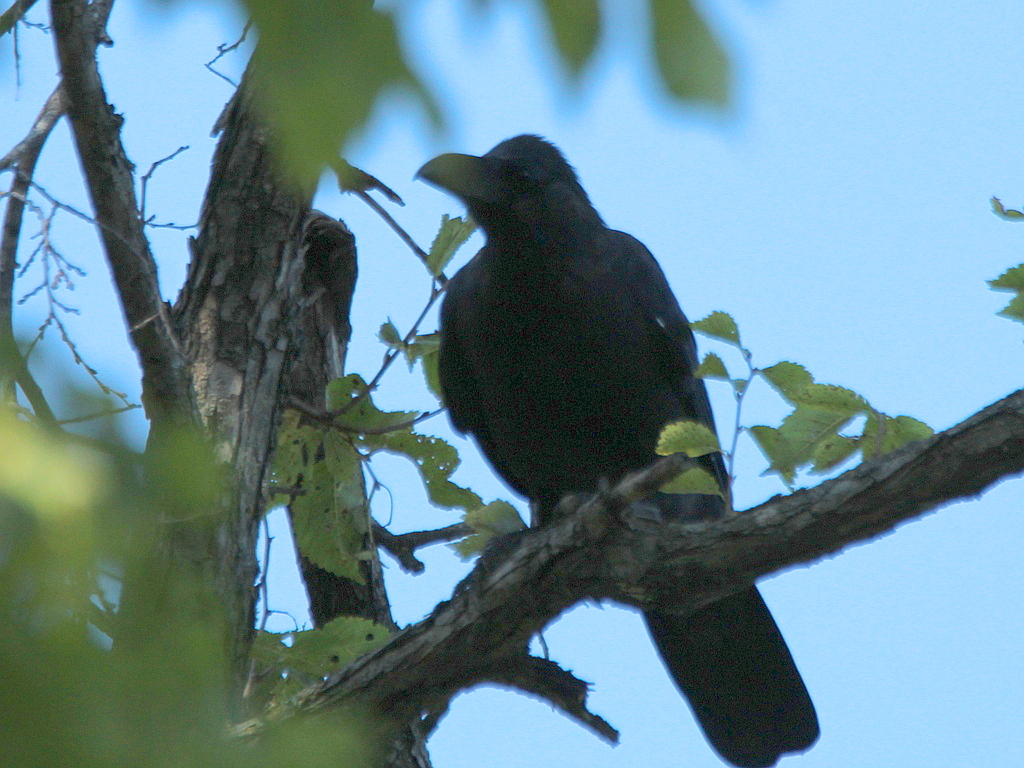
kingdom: Animalia
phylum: Chordata
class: Aves
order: Passeriformes
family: Corvidae
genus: Corvus
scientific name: Corvus macrorhynchos
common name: Large-billed crow
